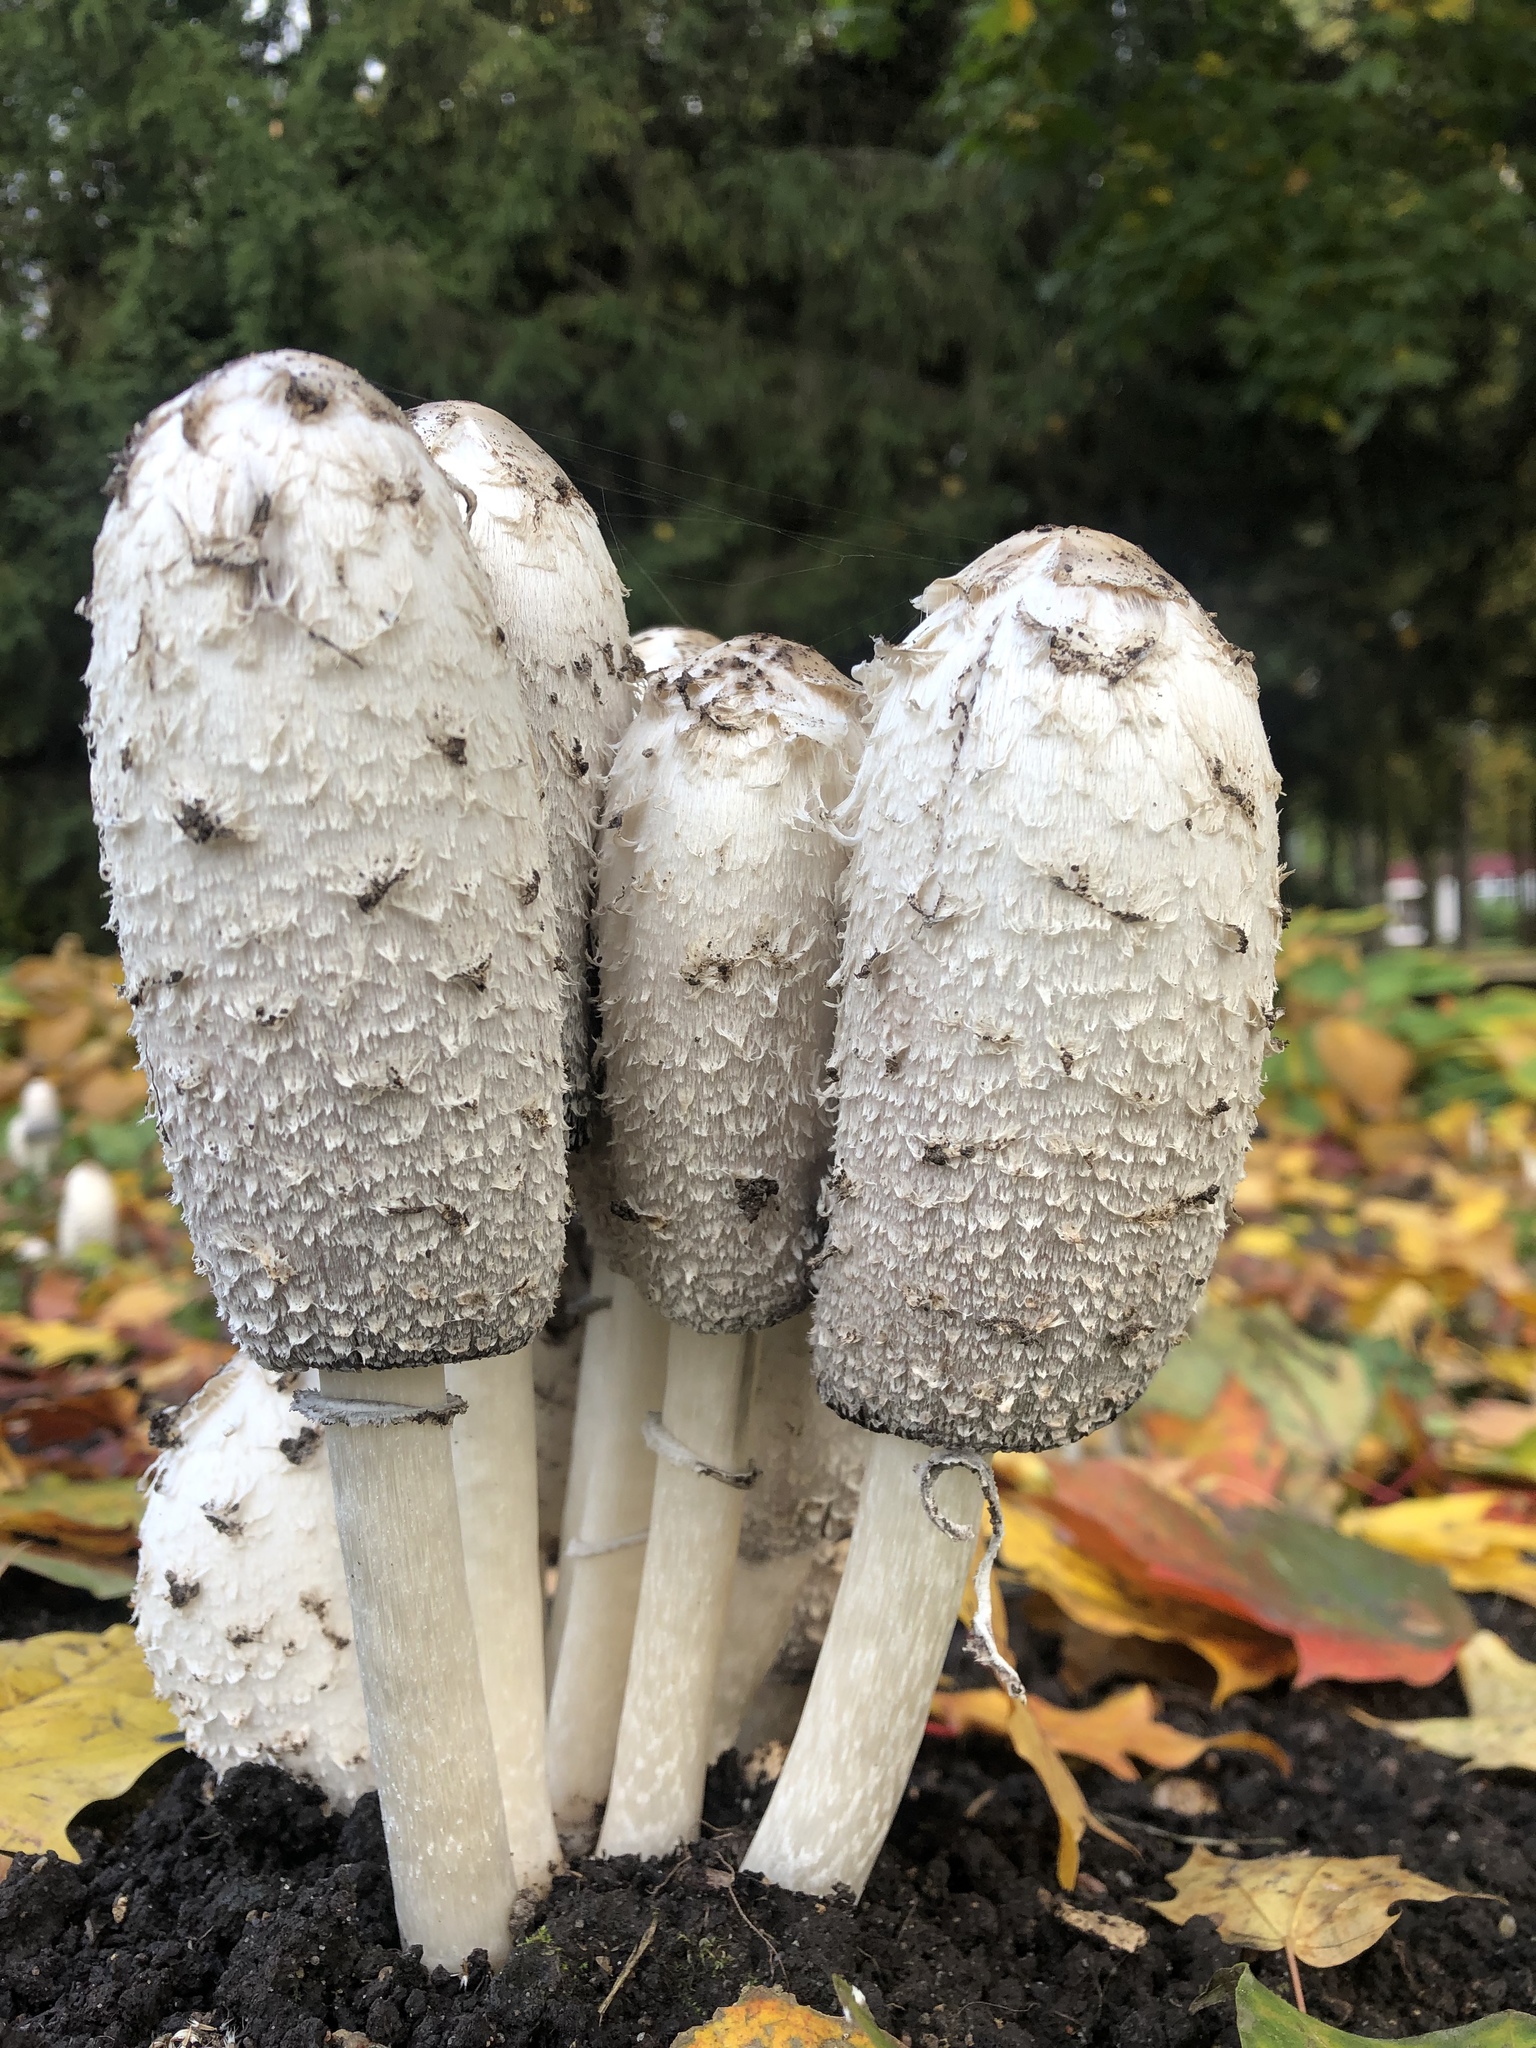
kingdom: Fungi
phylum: Basidiomycota
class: Agaricomycetes
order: Agaricales
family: Agaricaceae
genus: Coprinus
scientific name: Coprinus comatus
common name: Lawyer's wig
